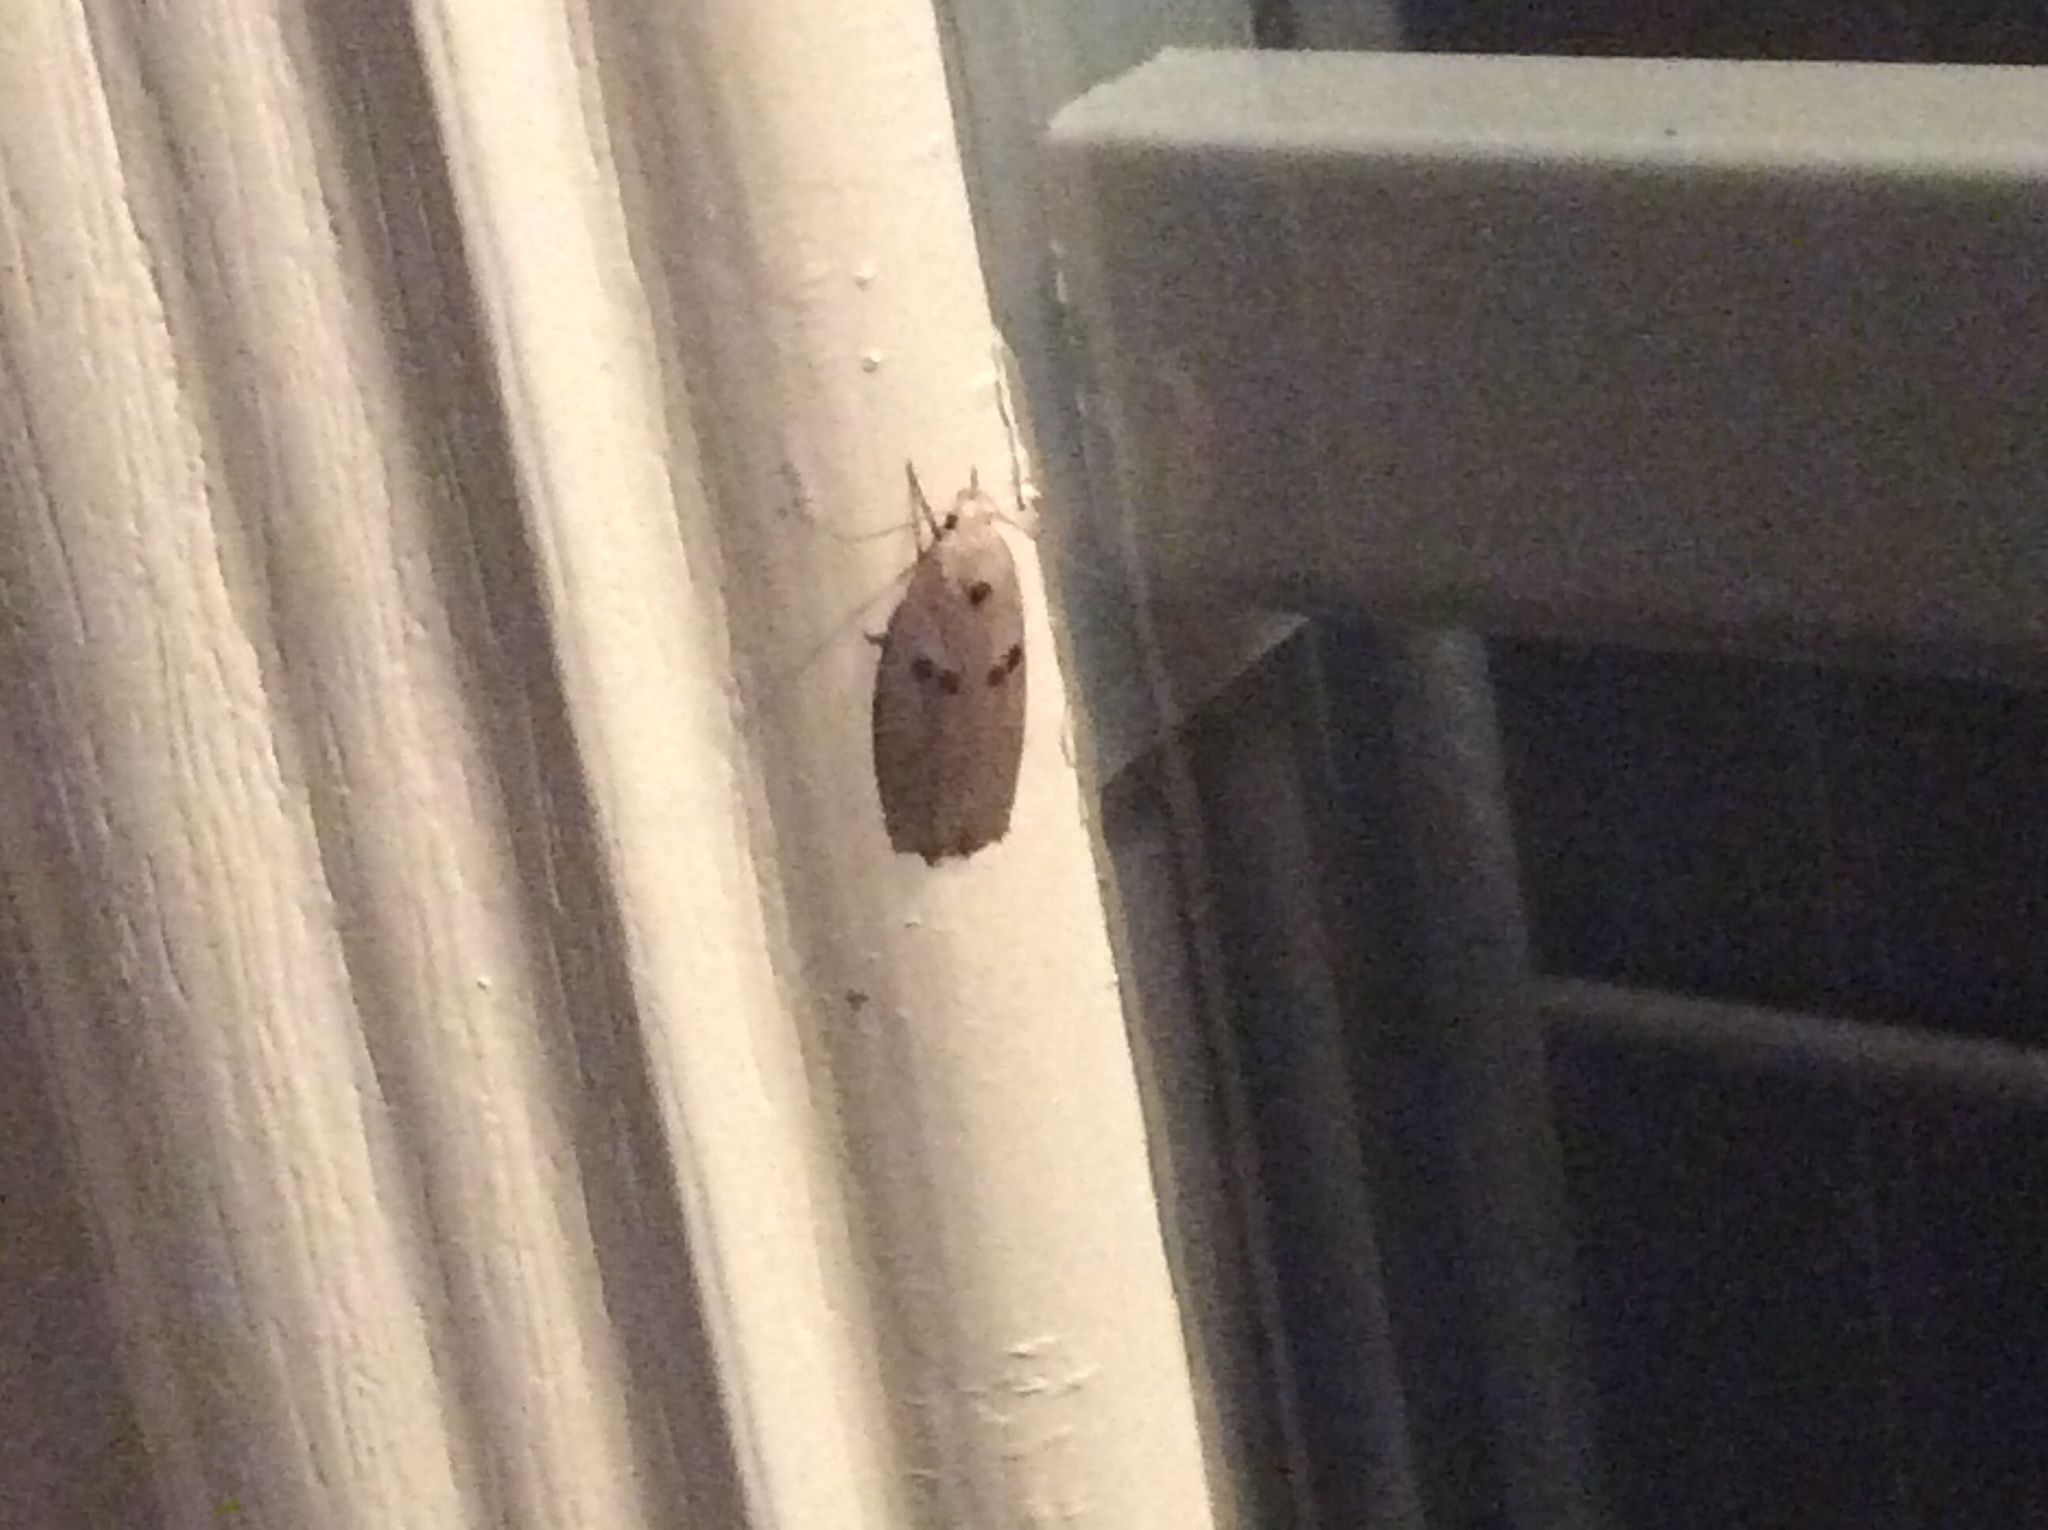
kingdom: Animalia
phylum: Arthropoda
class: Insecta
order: Lepidoptera
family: Peleopodidae
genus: Scythropiodes
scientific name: Scythropiodes issikii
